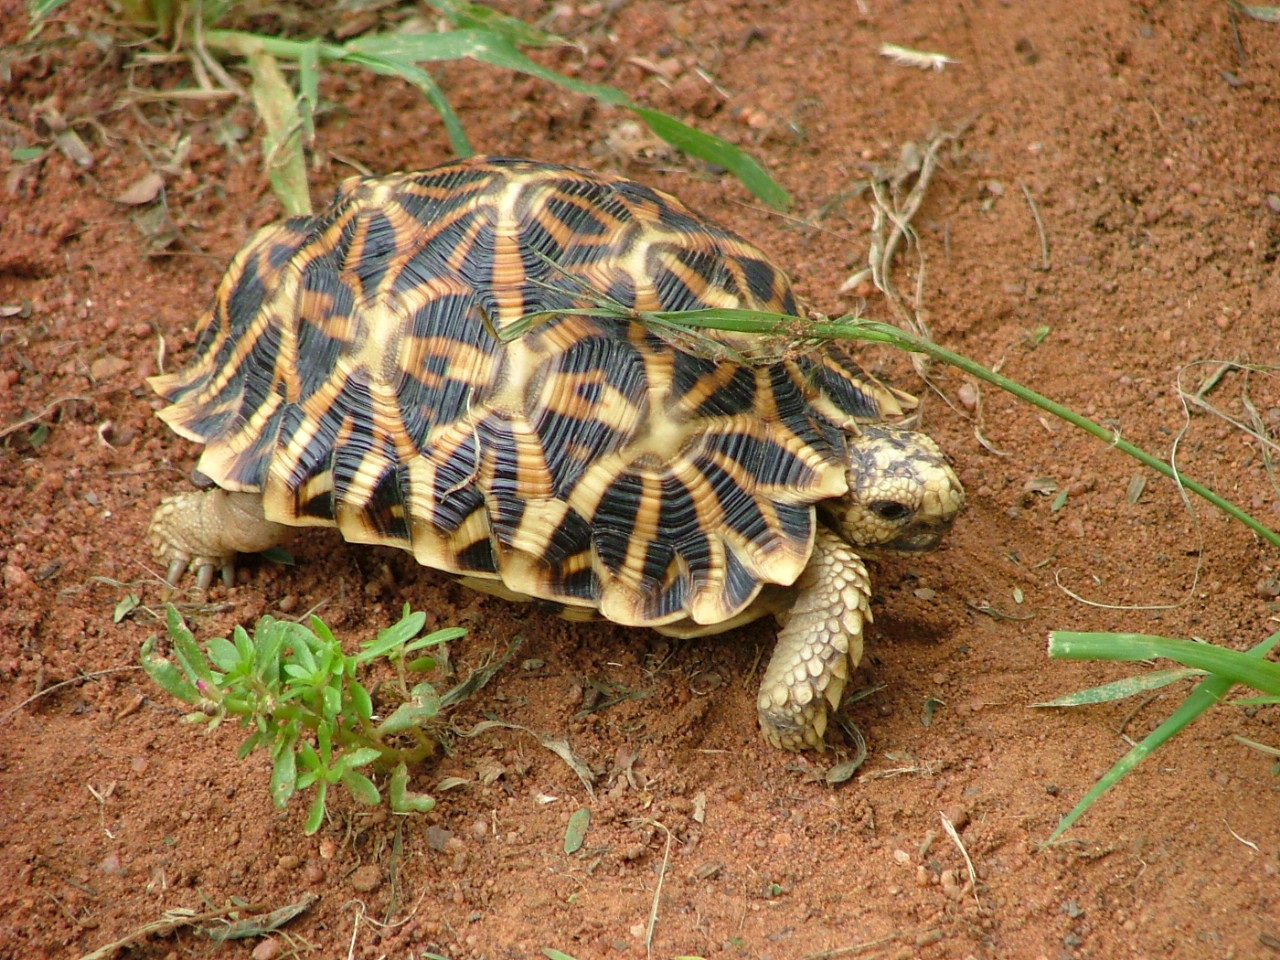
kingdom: Animalia
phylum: Chordata
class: Testudines
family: Testudinidae
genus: Psammobates
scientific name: Psammobates oculifer
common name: Serrated tortoise
